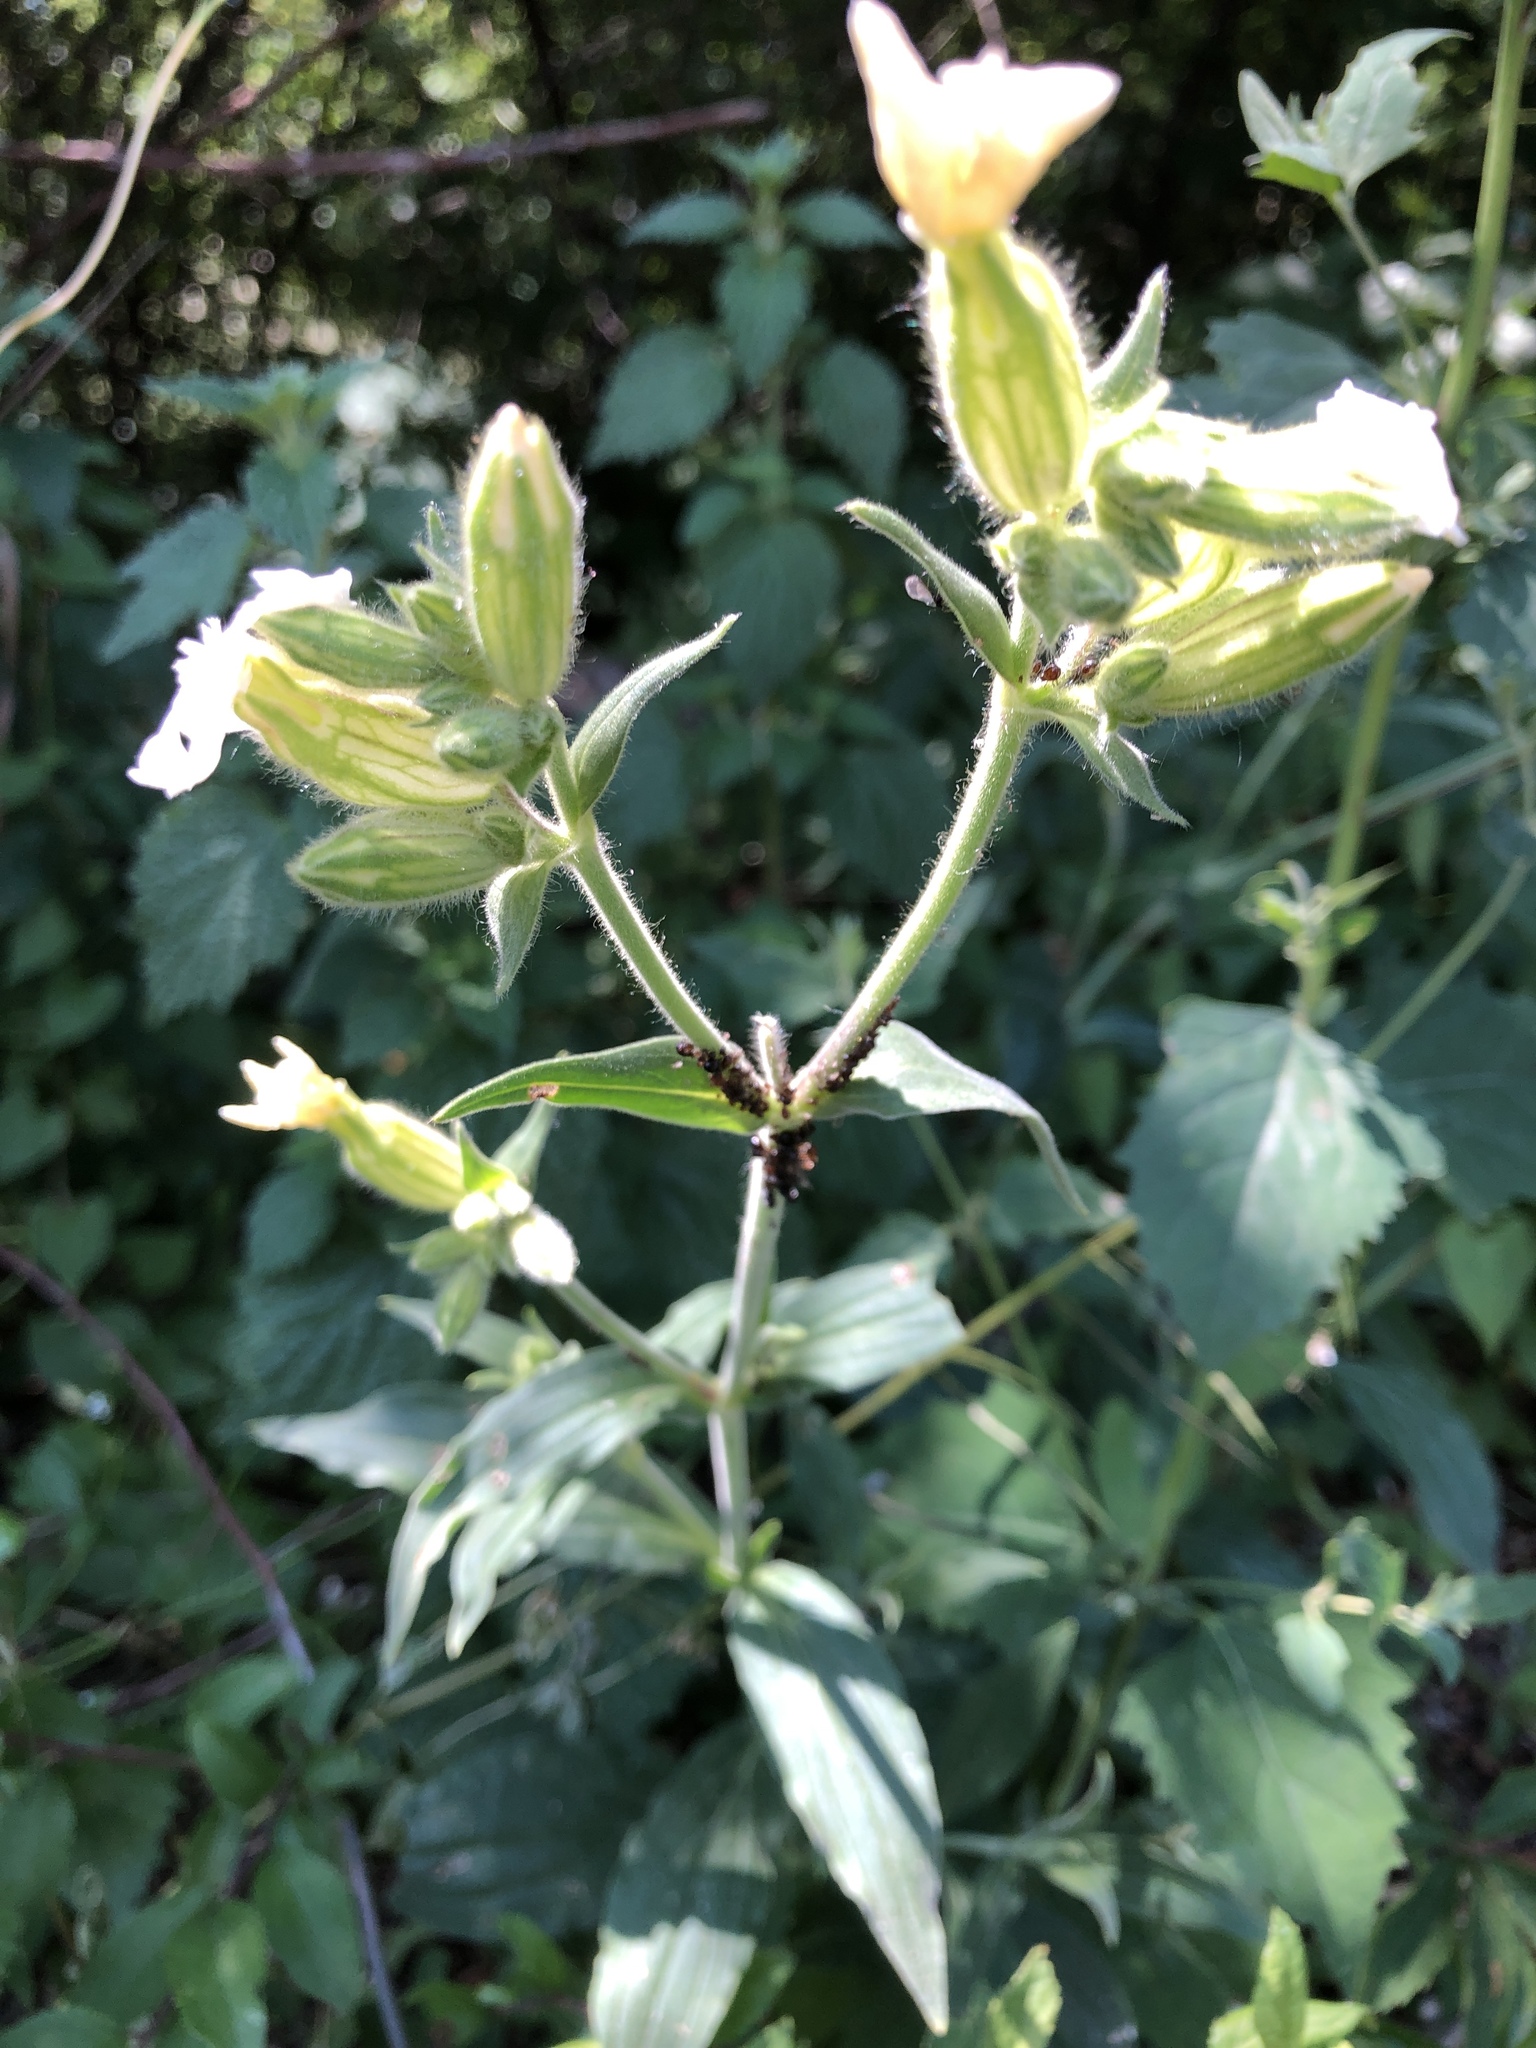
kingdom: Plantae
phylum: Tracheophyta
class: Magnoliopsida
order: Caryophyllales
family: Caryophyllaceae
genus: Silene
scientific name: Silene latifolia
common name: White campion
